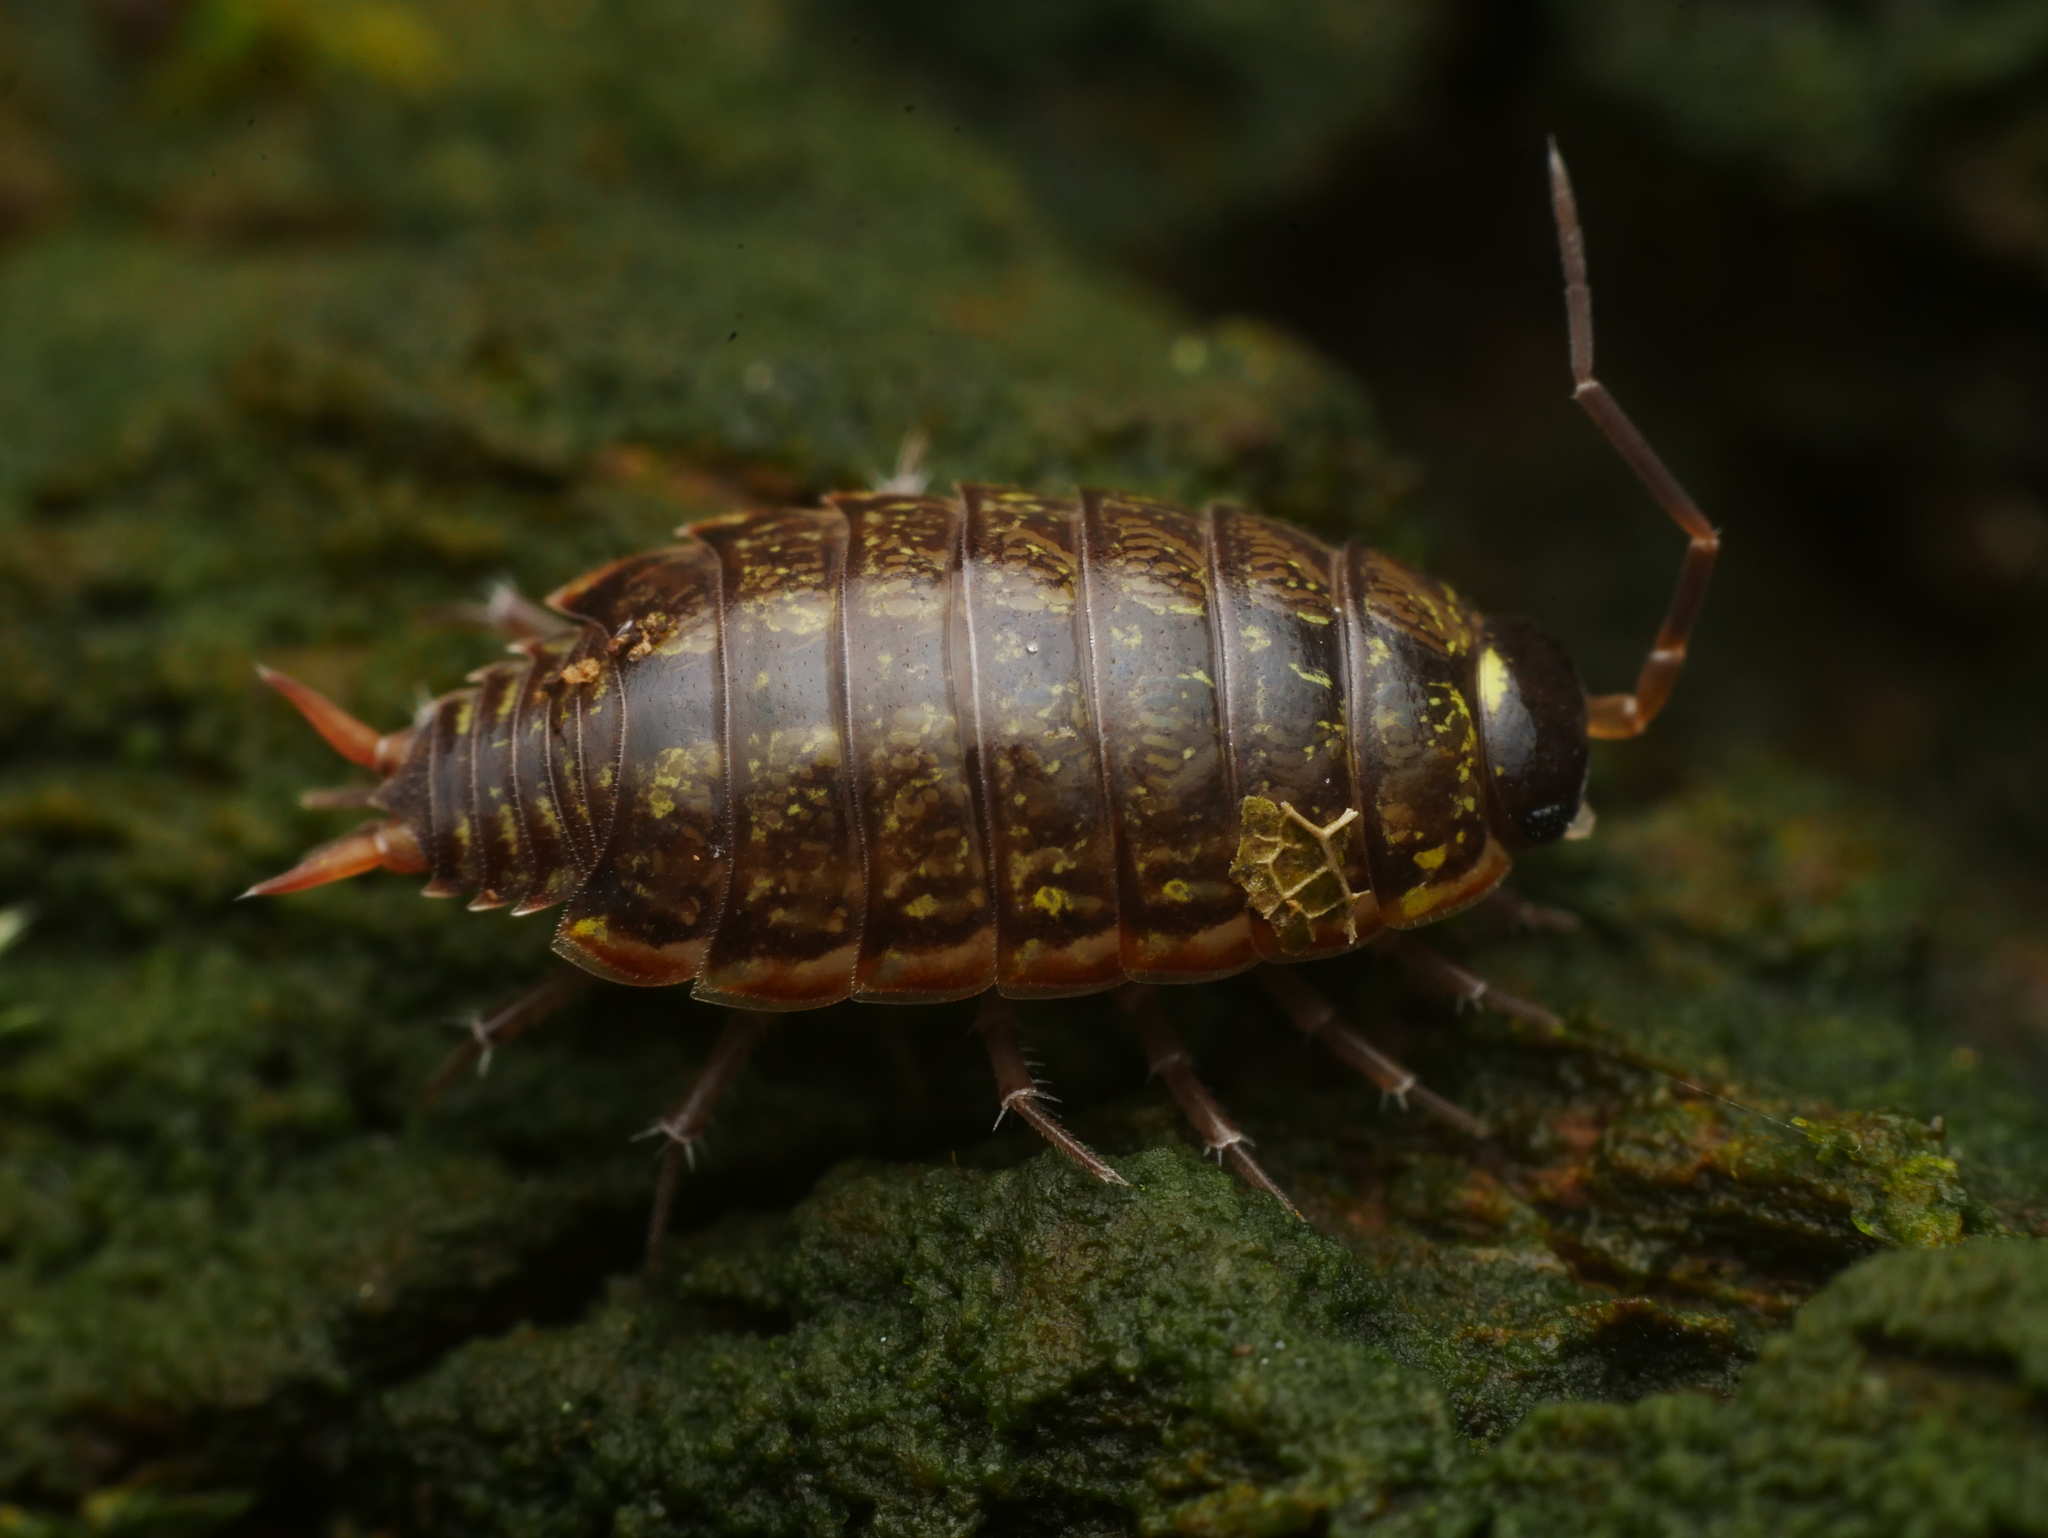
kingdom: Animalia
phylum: Arthropoda
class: Malacostraca
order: Isopoda
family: Philosciidae
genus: Philoscia
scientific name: Philoscia muscorum
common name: Common striped woodlouse
